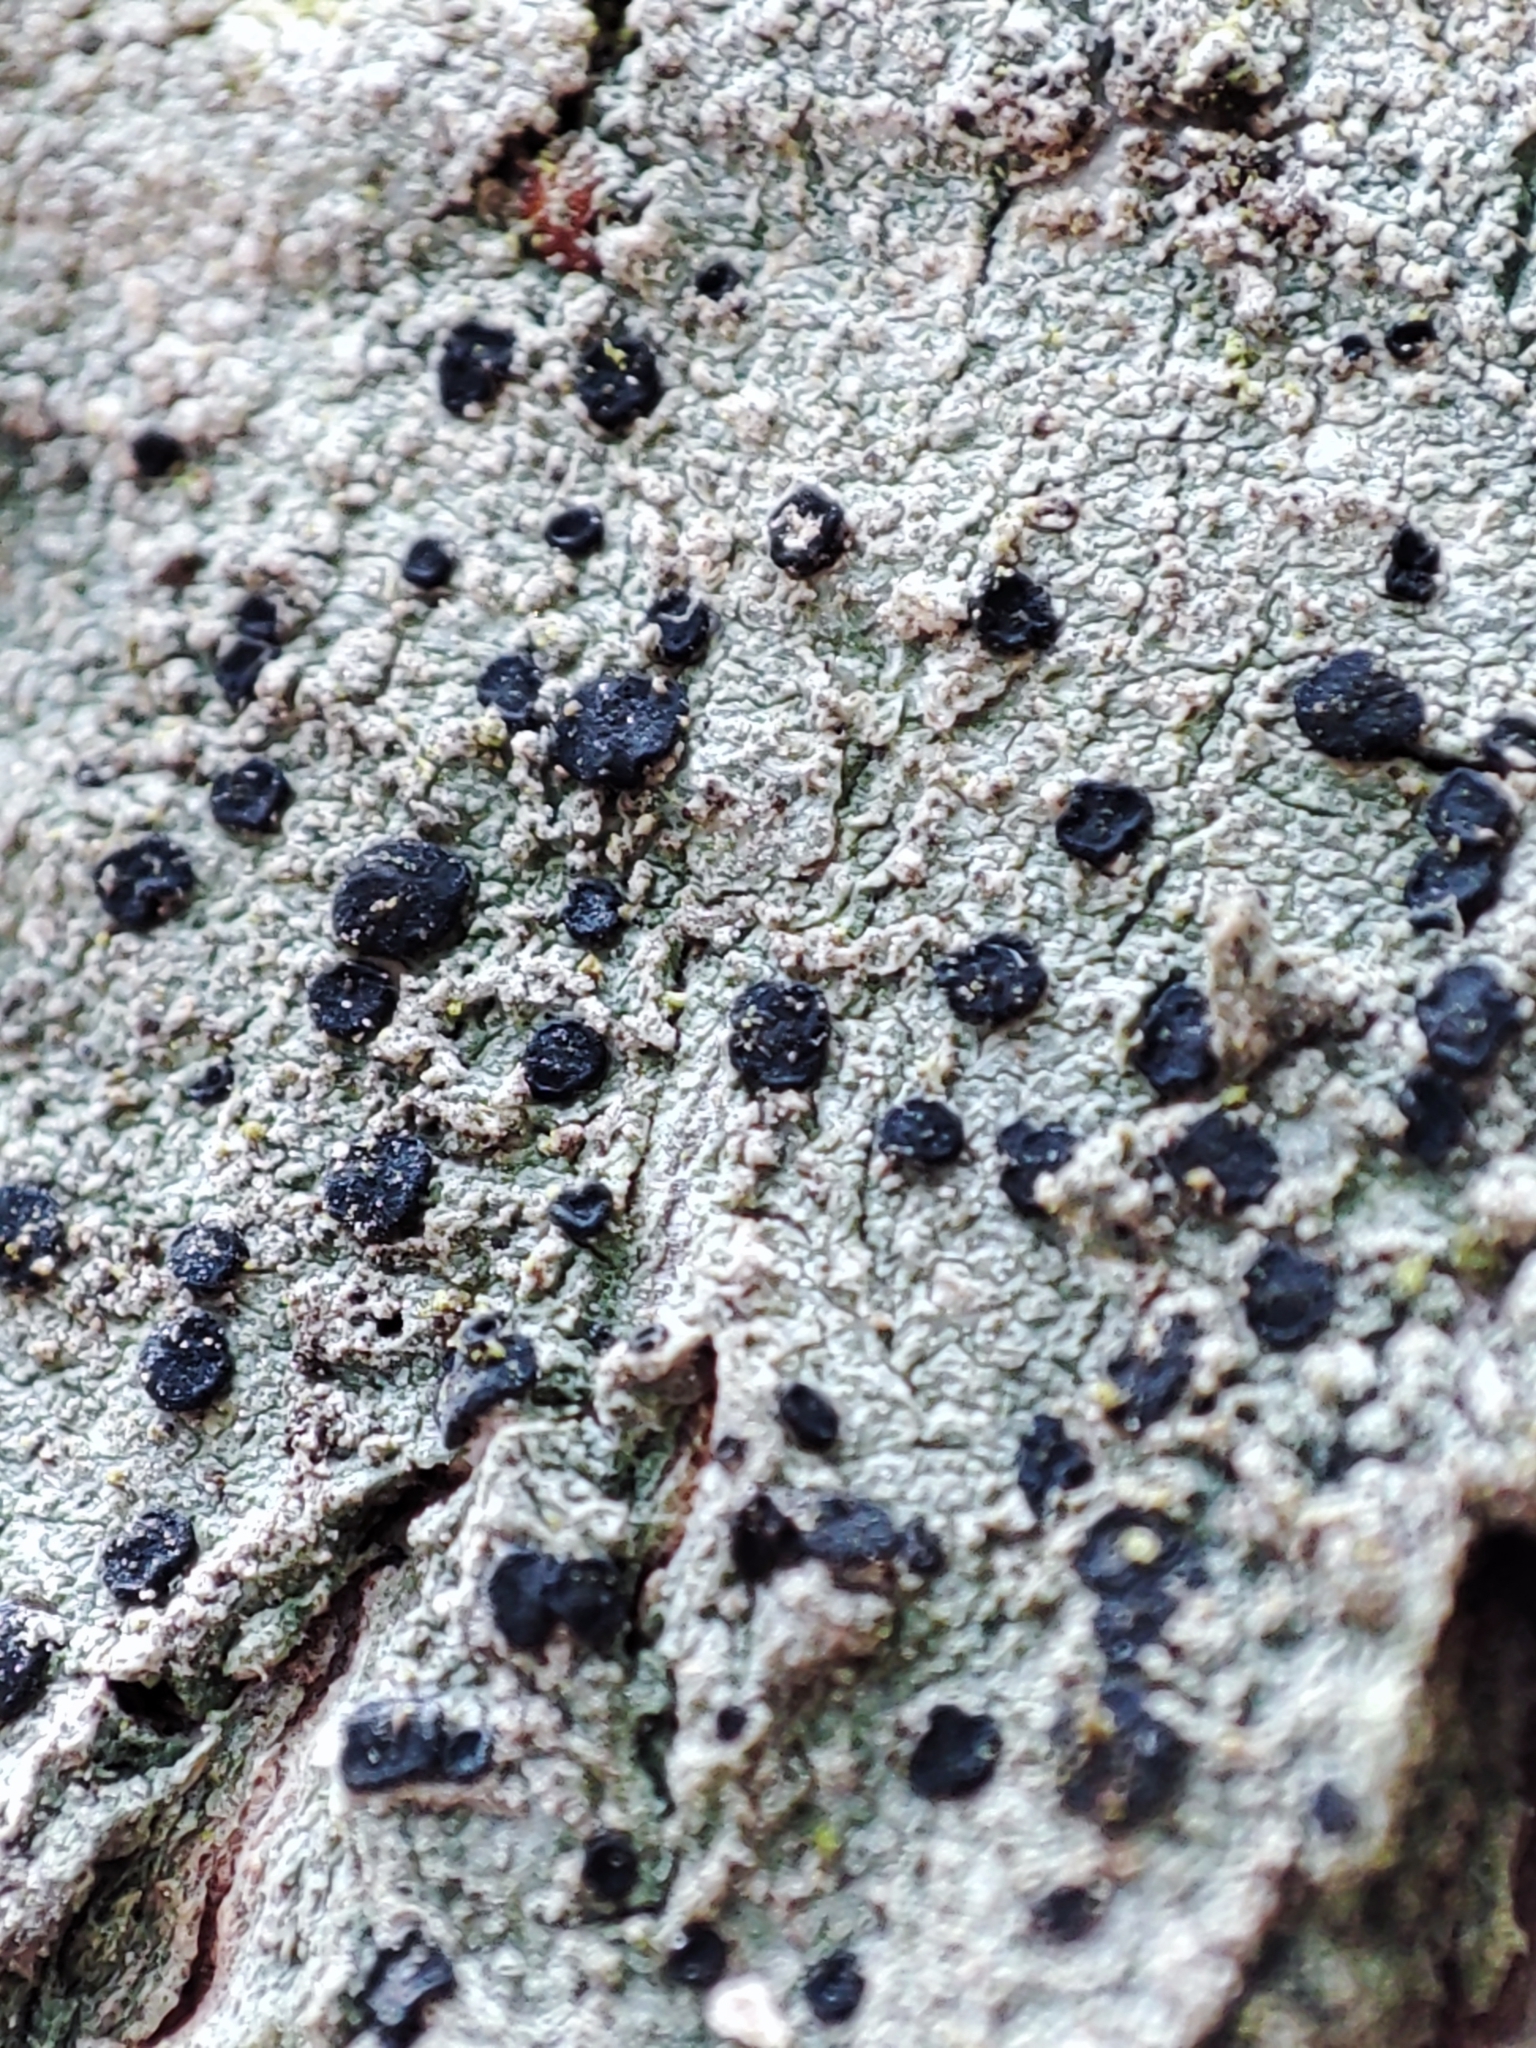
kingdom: Fungi
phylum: Ascomycota
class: Lecanoromycetes
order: Lecanorales
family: Lecanoraceae
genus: Lecidella
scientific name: Lecidella elaeochroma
